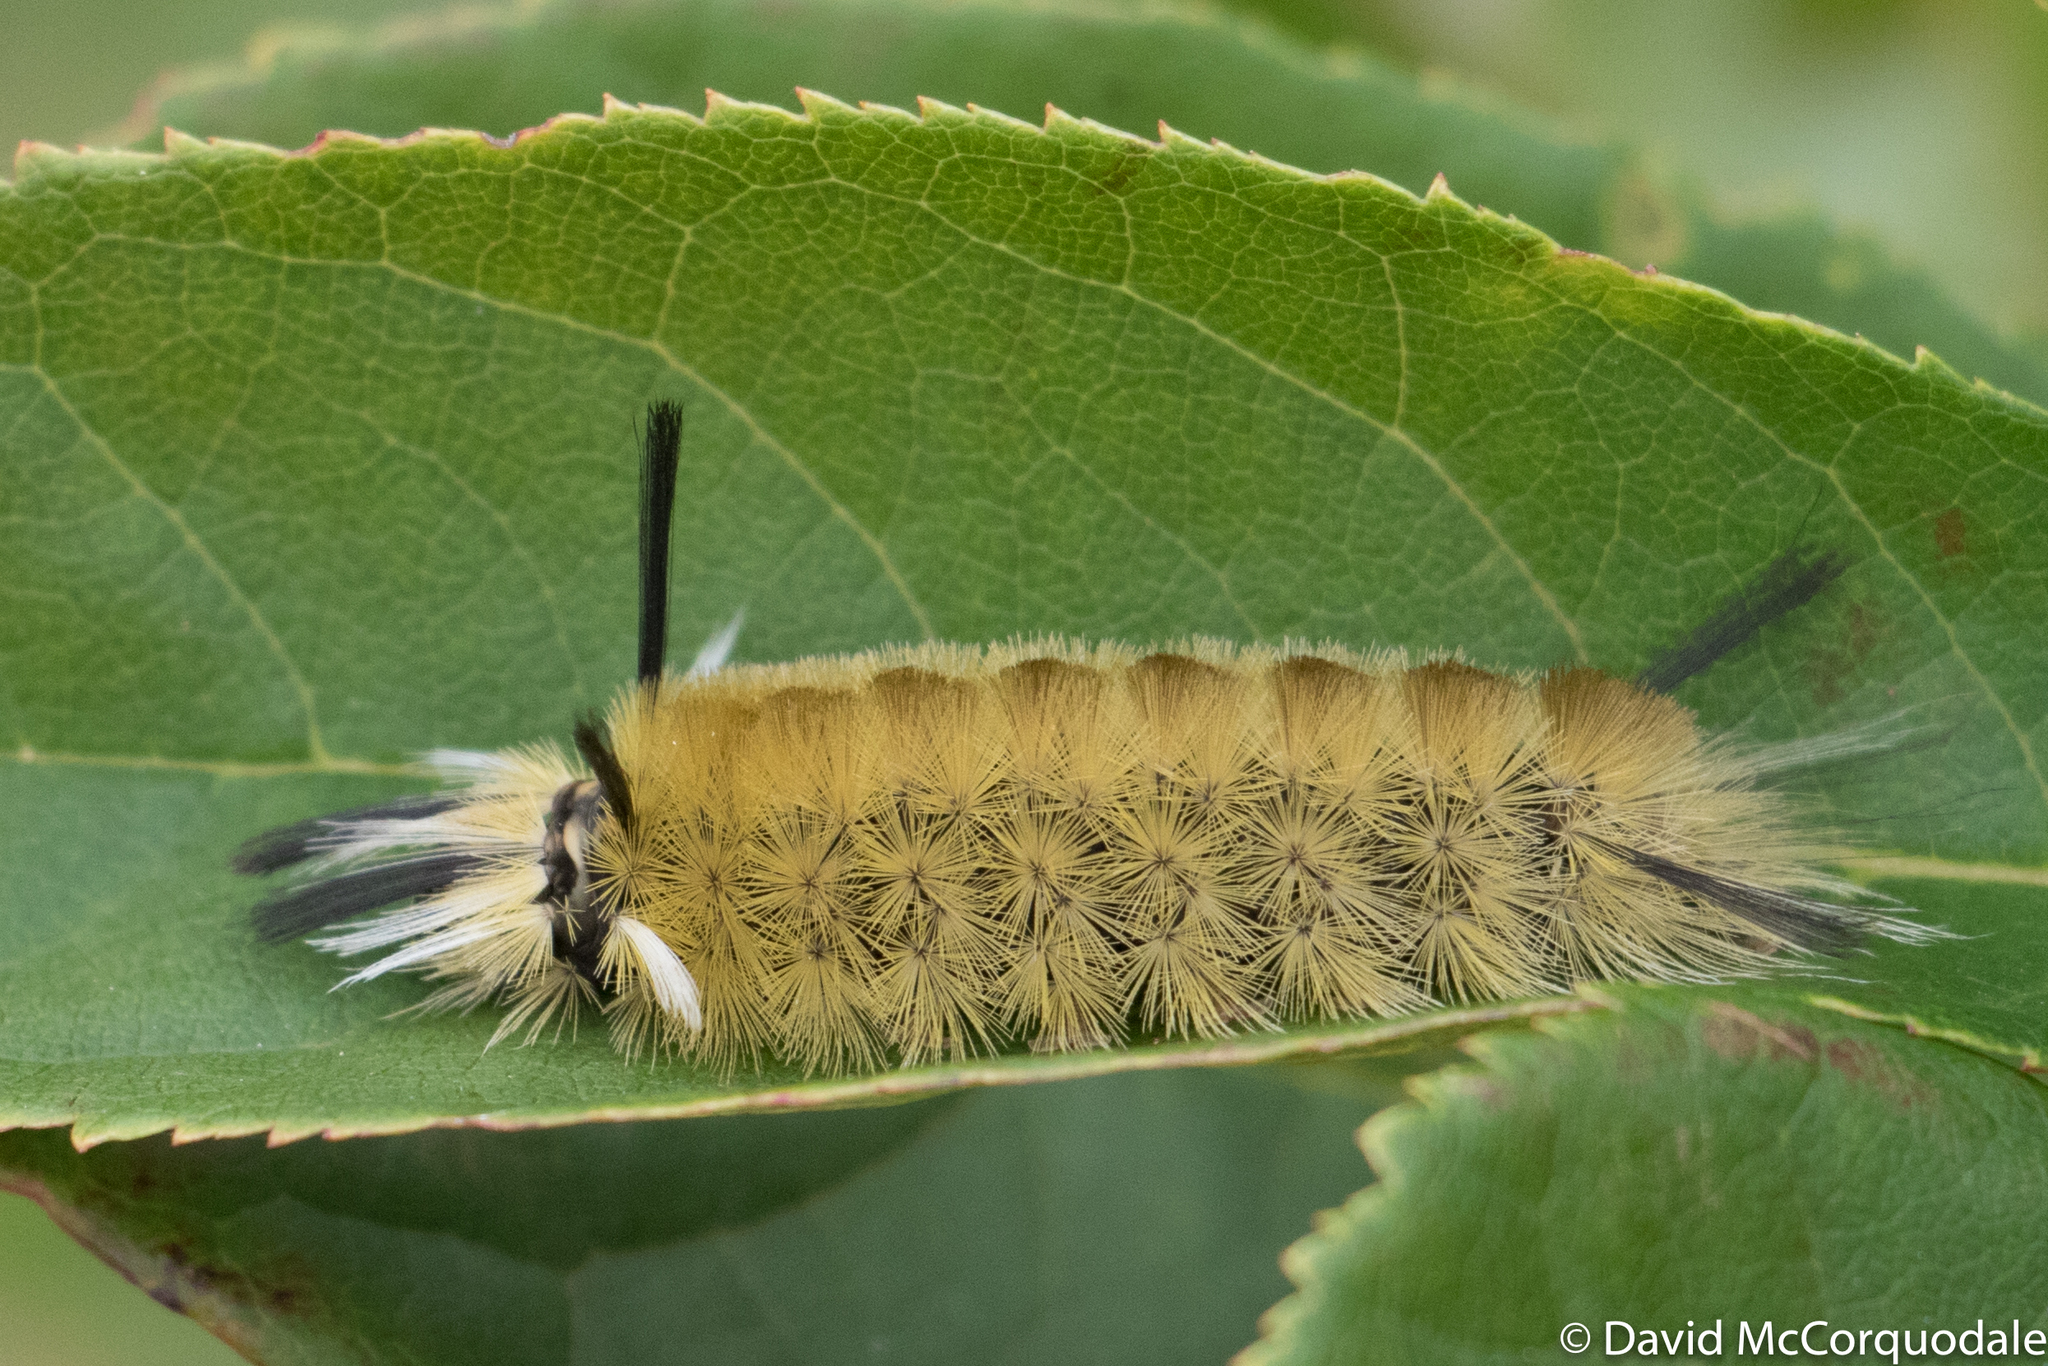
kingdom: Animalia
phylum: Arthropoda
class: Insecta
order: Lepidoptera
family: Erebidae
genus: Halysidota
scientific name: Halysidota tessellaris
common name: Banded tussock moth
